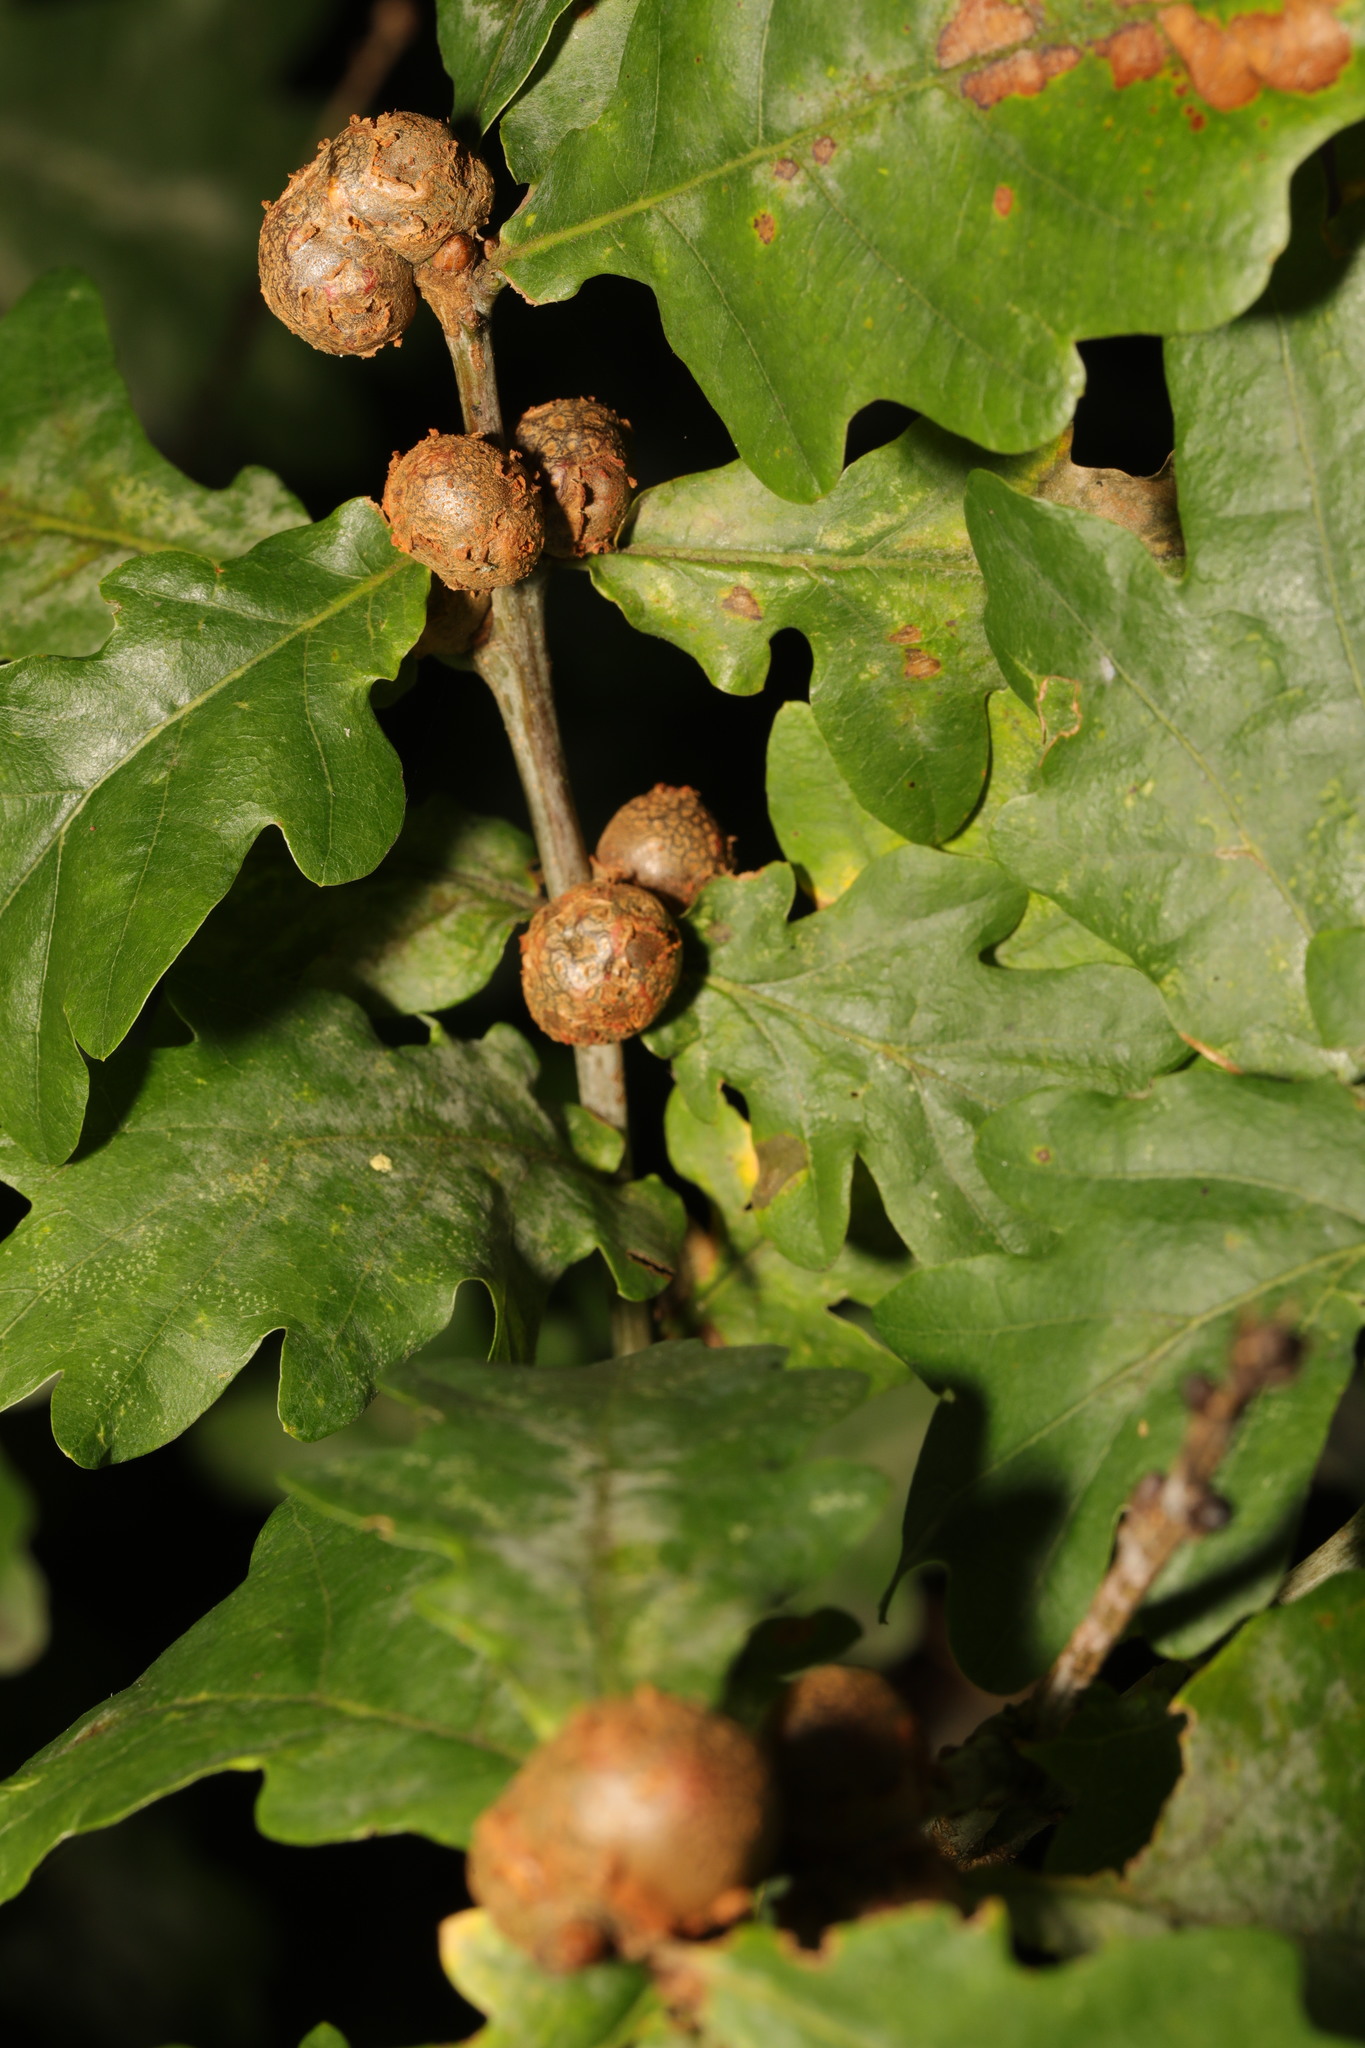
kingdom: Animalia
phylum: Arthropoda
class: Insecta
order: Hymenoptera
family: Cynipidae
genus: Andricus
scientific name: Andricus lignicolus
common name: Cola-nut gall
